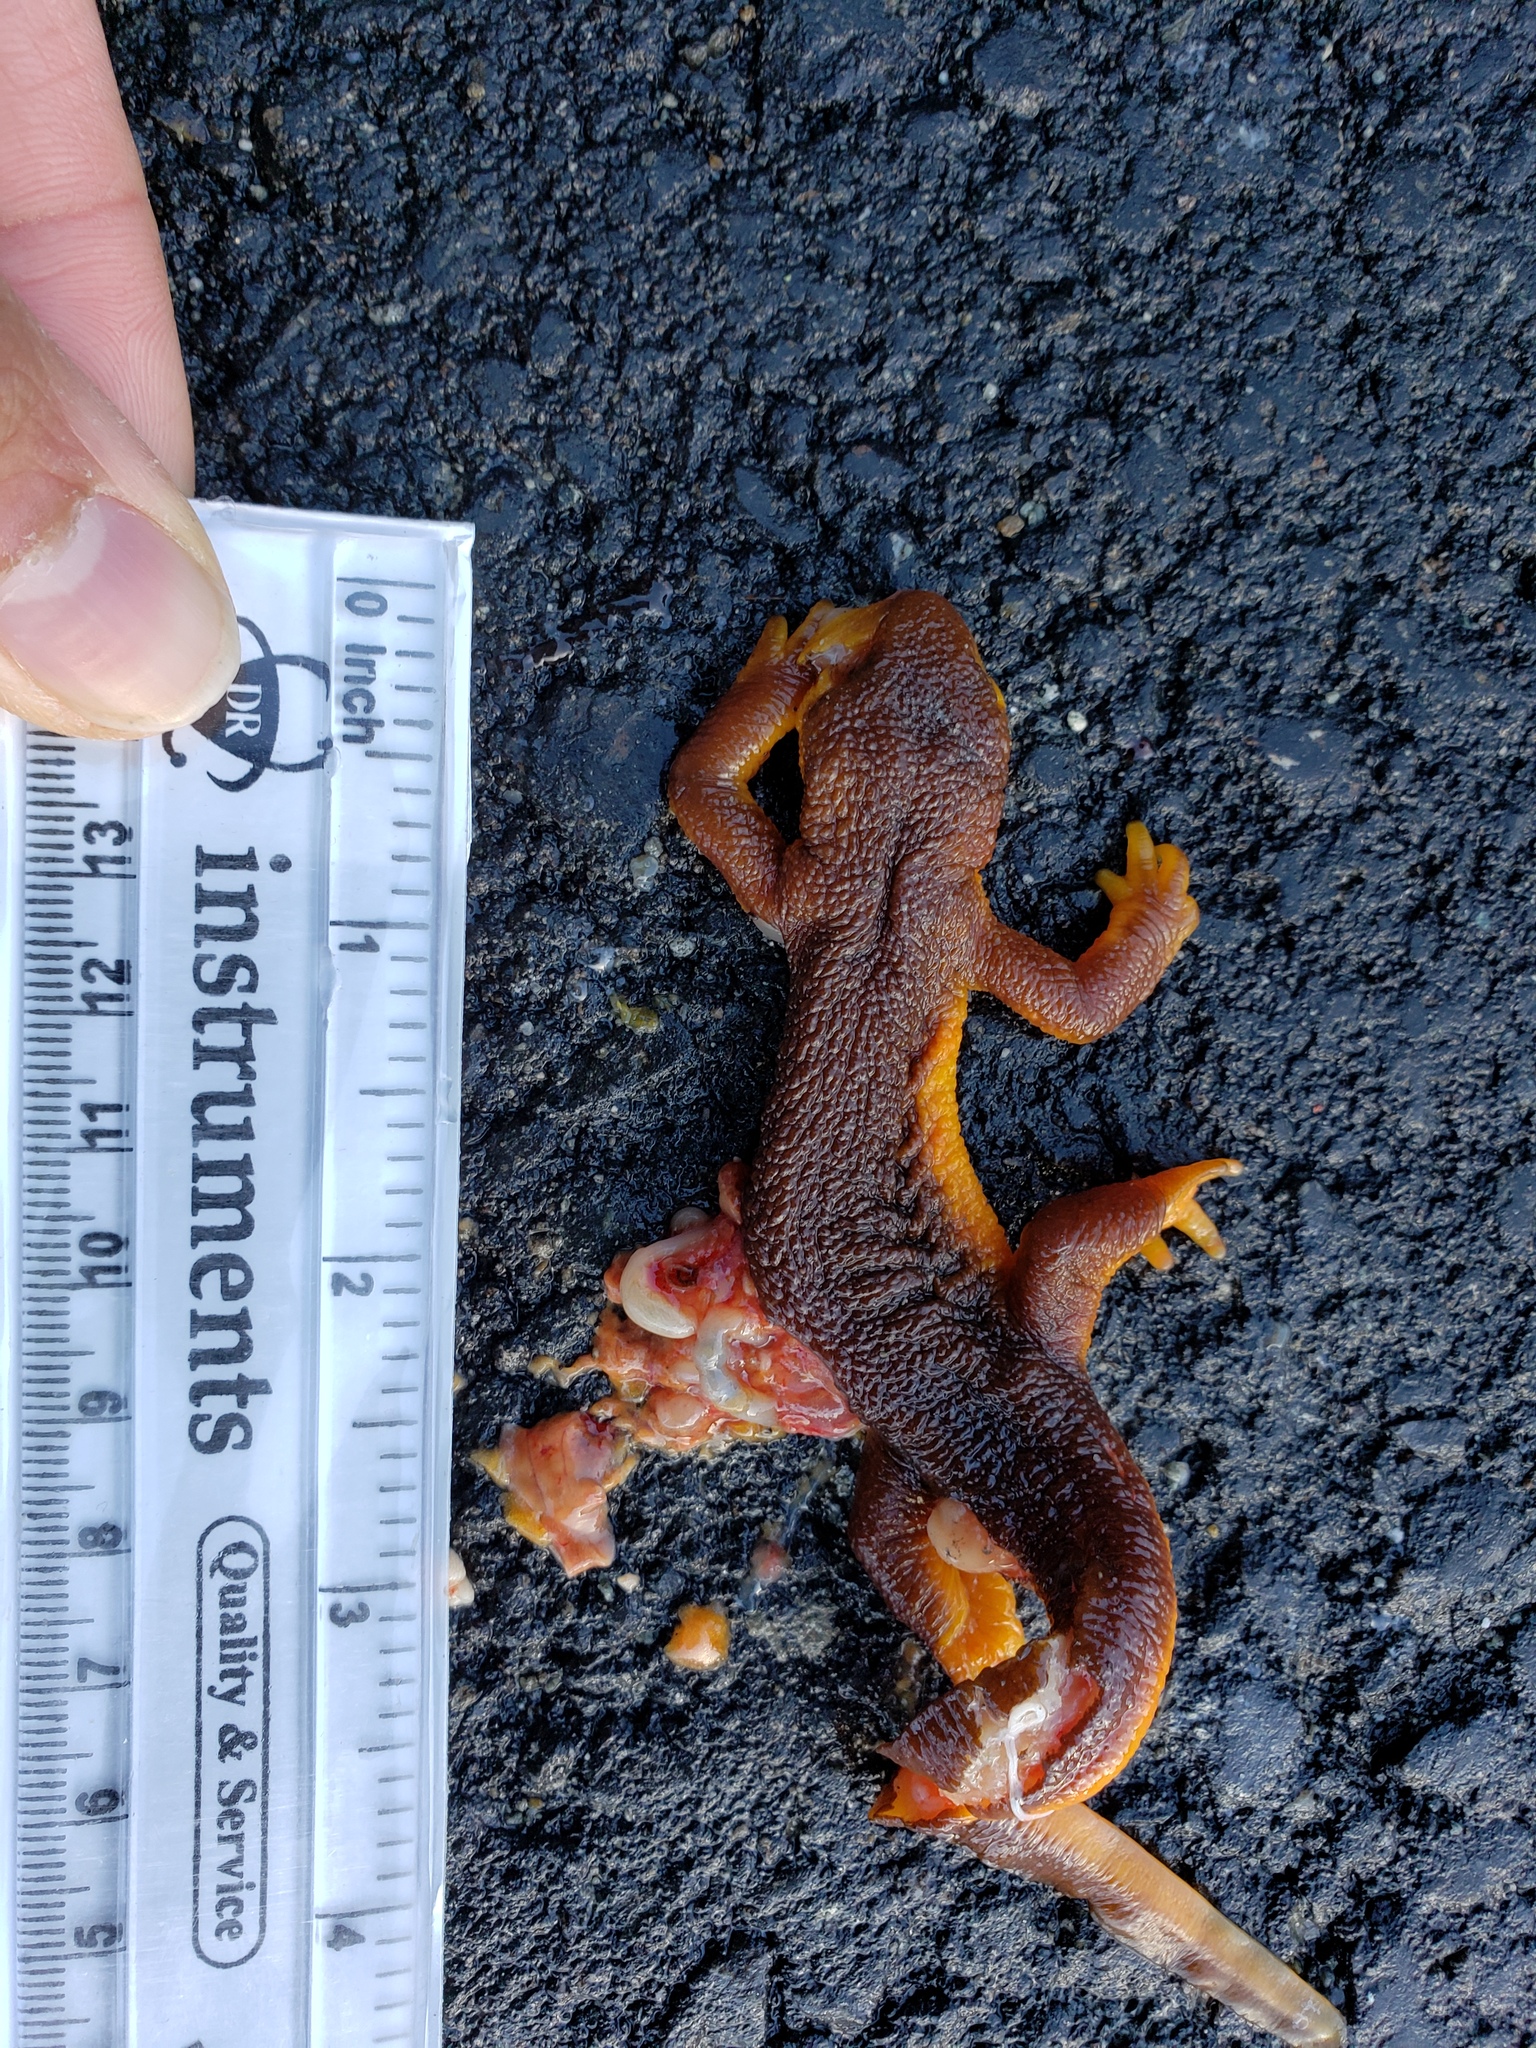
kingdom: Animalia
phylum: Chordata
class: Amphibia
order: Caudata
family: Salamandridae
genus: Taricha
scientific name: Taricha
